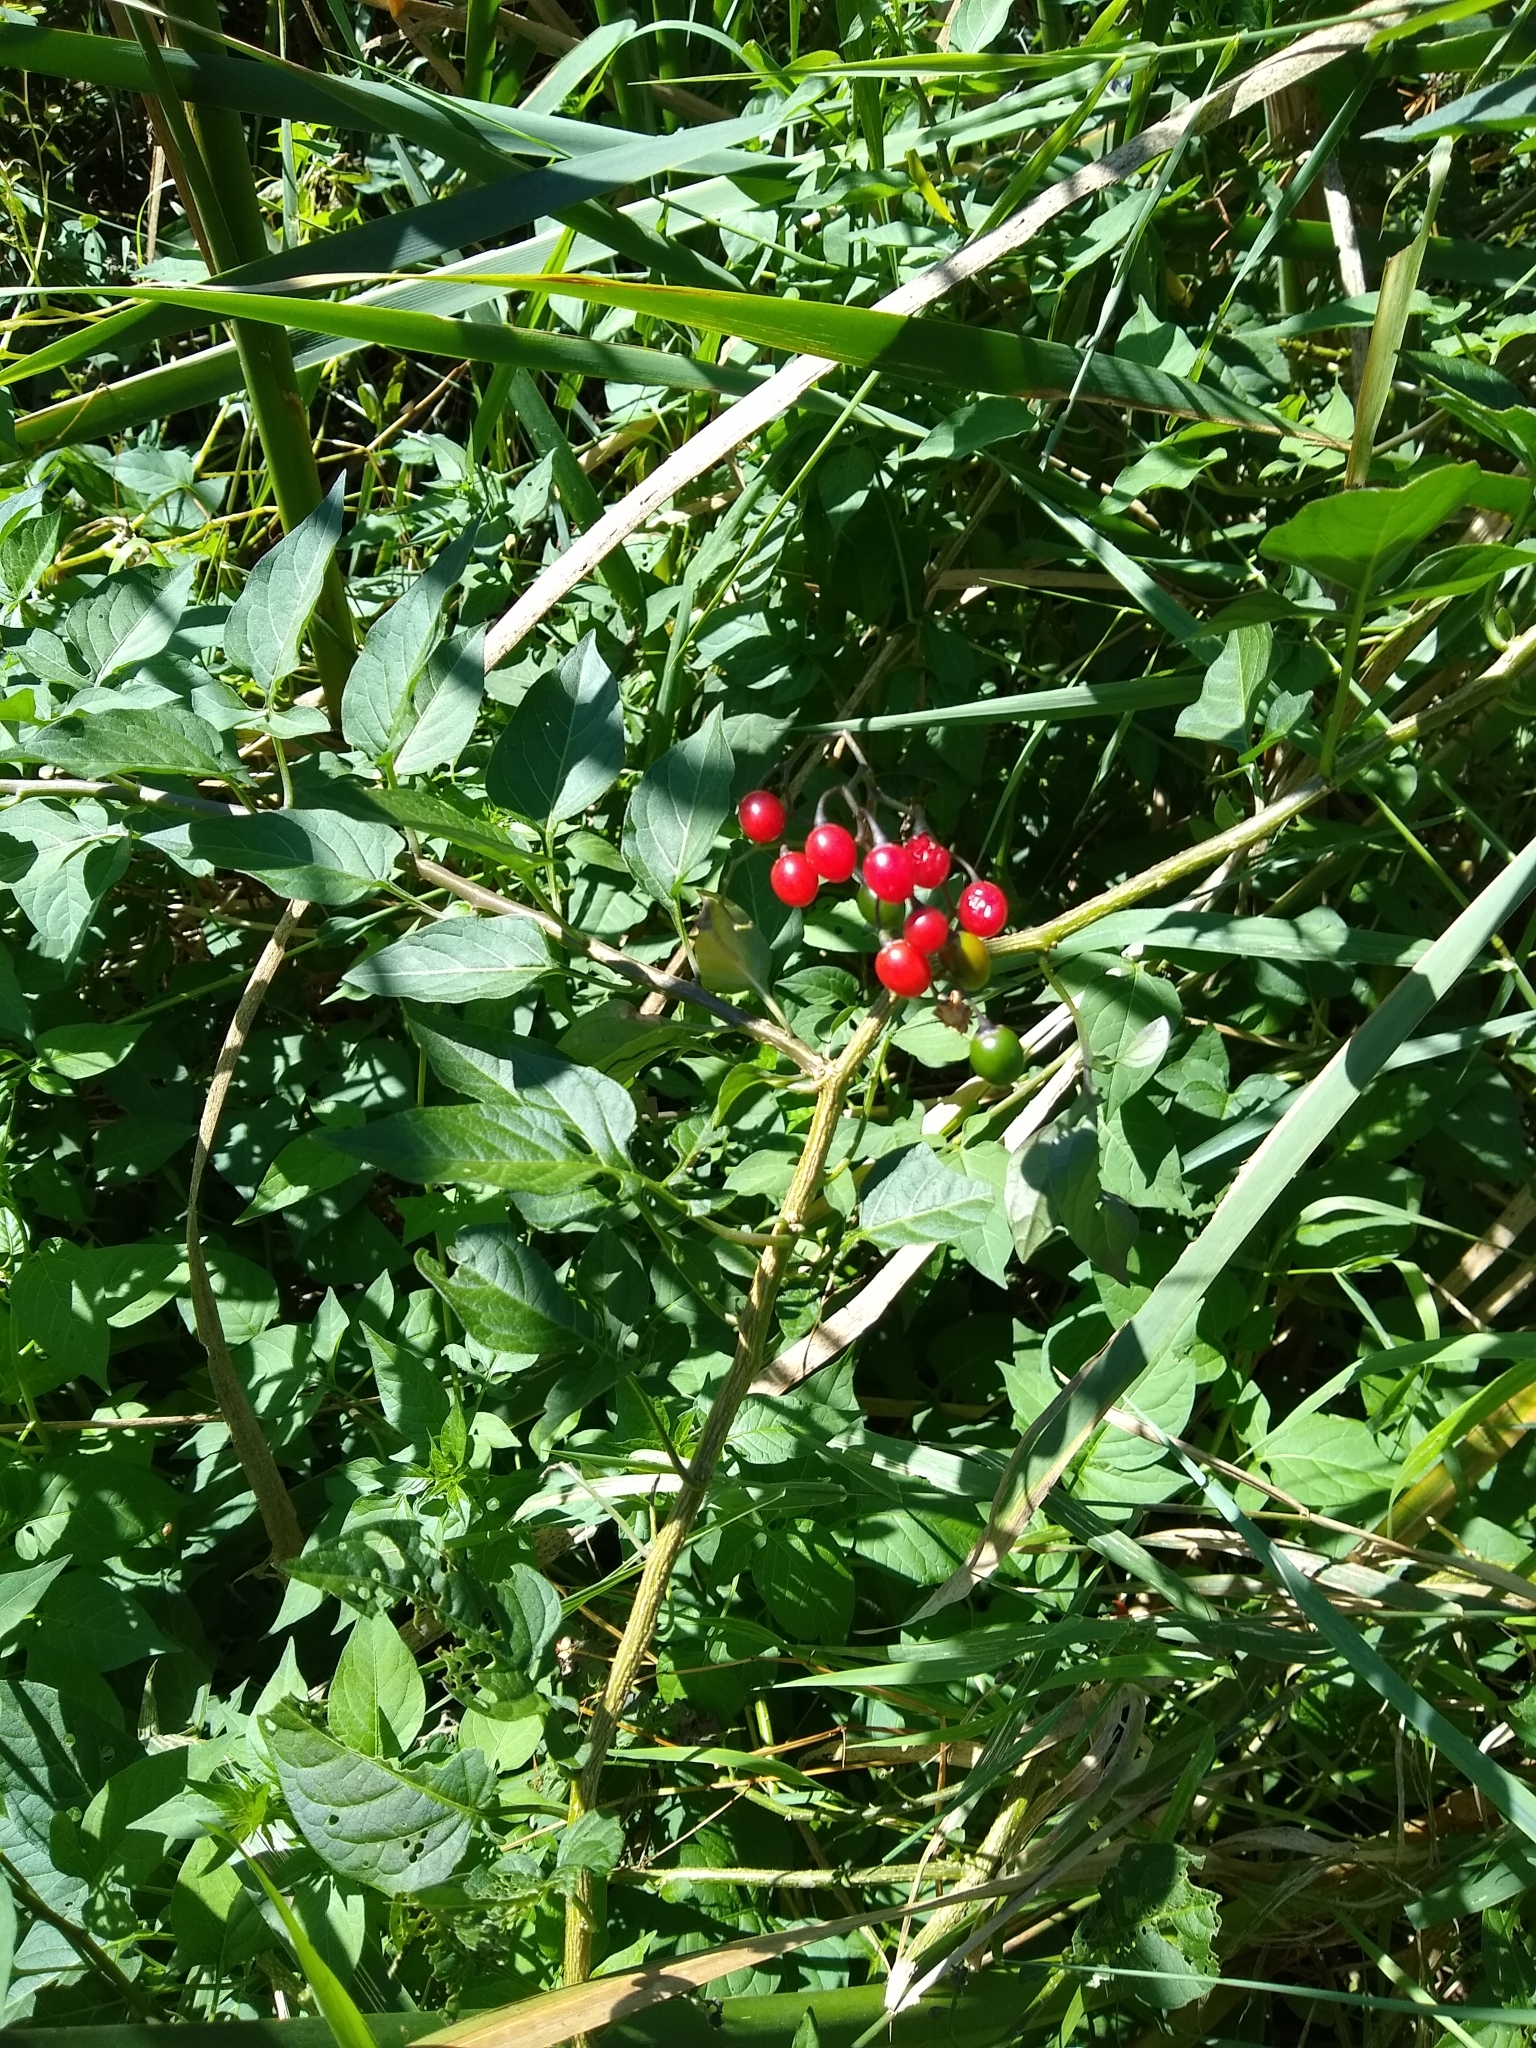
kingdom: Plantae
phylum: Tracheophyta
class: Magnoliopsida
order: Solanales
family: Solanaceae
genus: Solanum
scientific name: Solanum dulcamara
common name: Climbing nightshade
